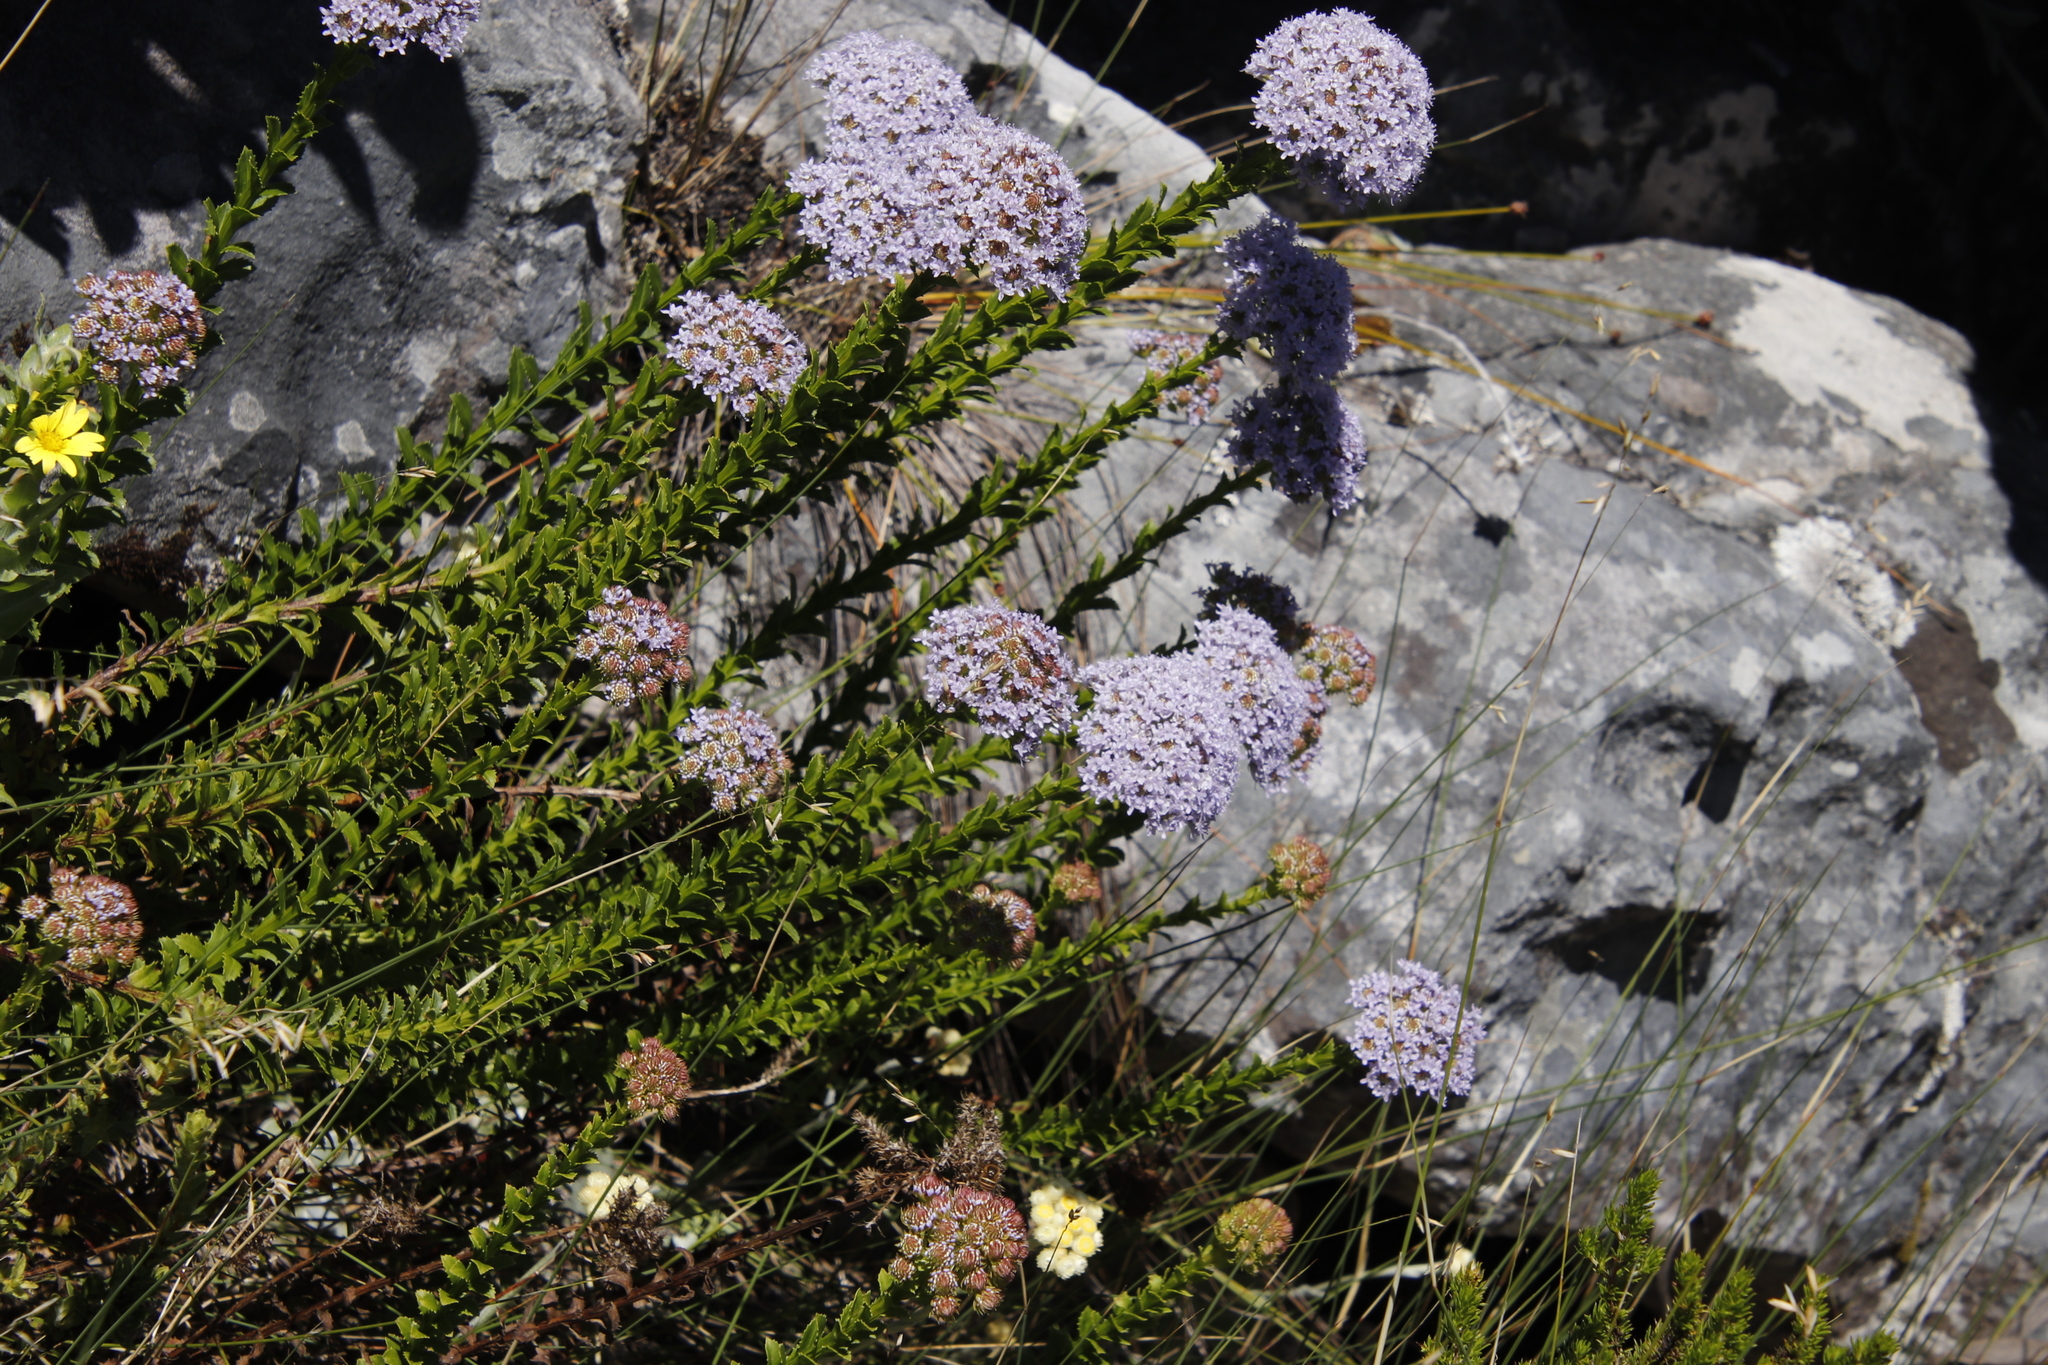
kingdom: Plantae
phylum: Tracheophyta
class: Magnoliopsida
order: Lamiales
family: Scrophulariaceae
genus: Pseudoselago
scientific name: Pseudoselago serrata
